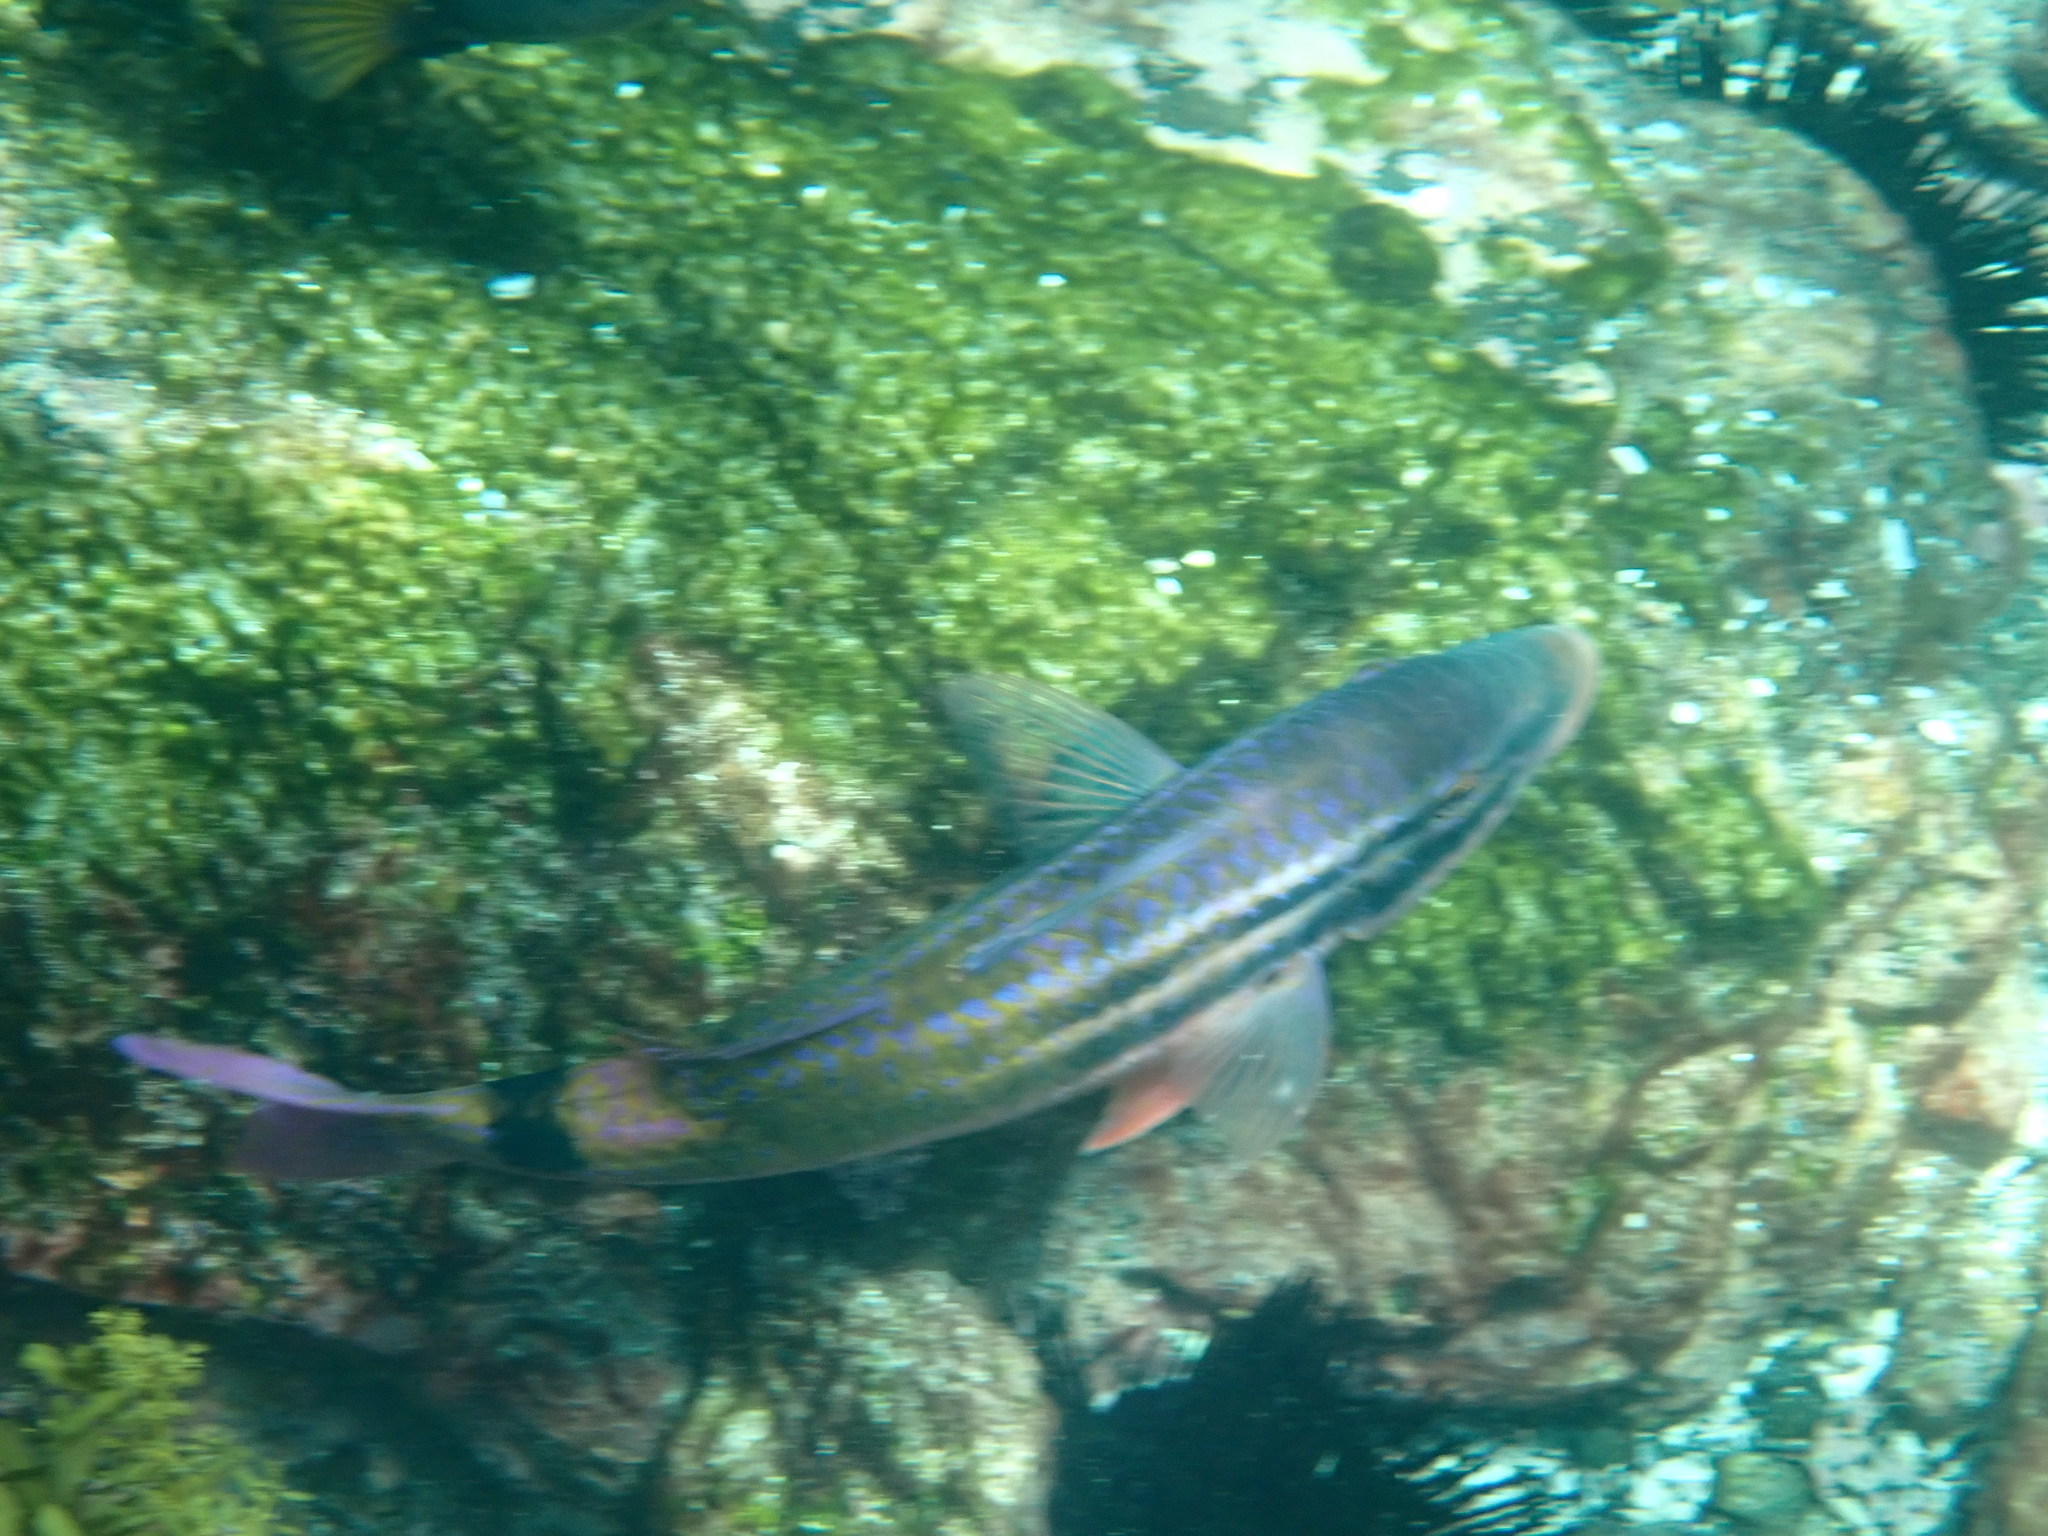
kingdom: Animalia
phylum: Chordata
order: Perciformes
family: Mullidae
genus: Parupeneus
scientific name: Parupeneus spilurus
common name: Blackspot goatfish
